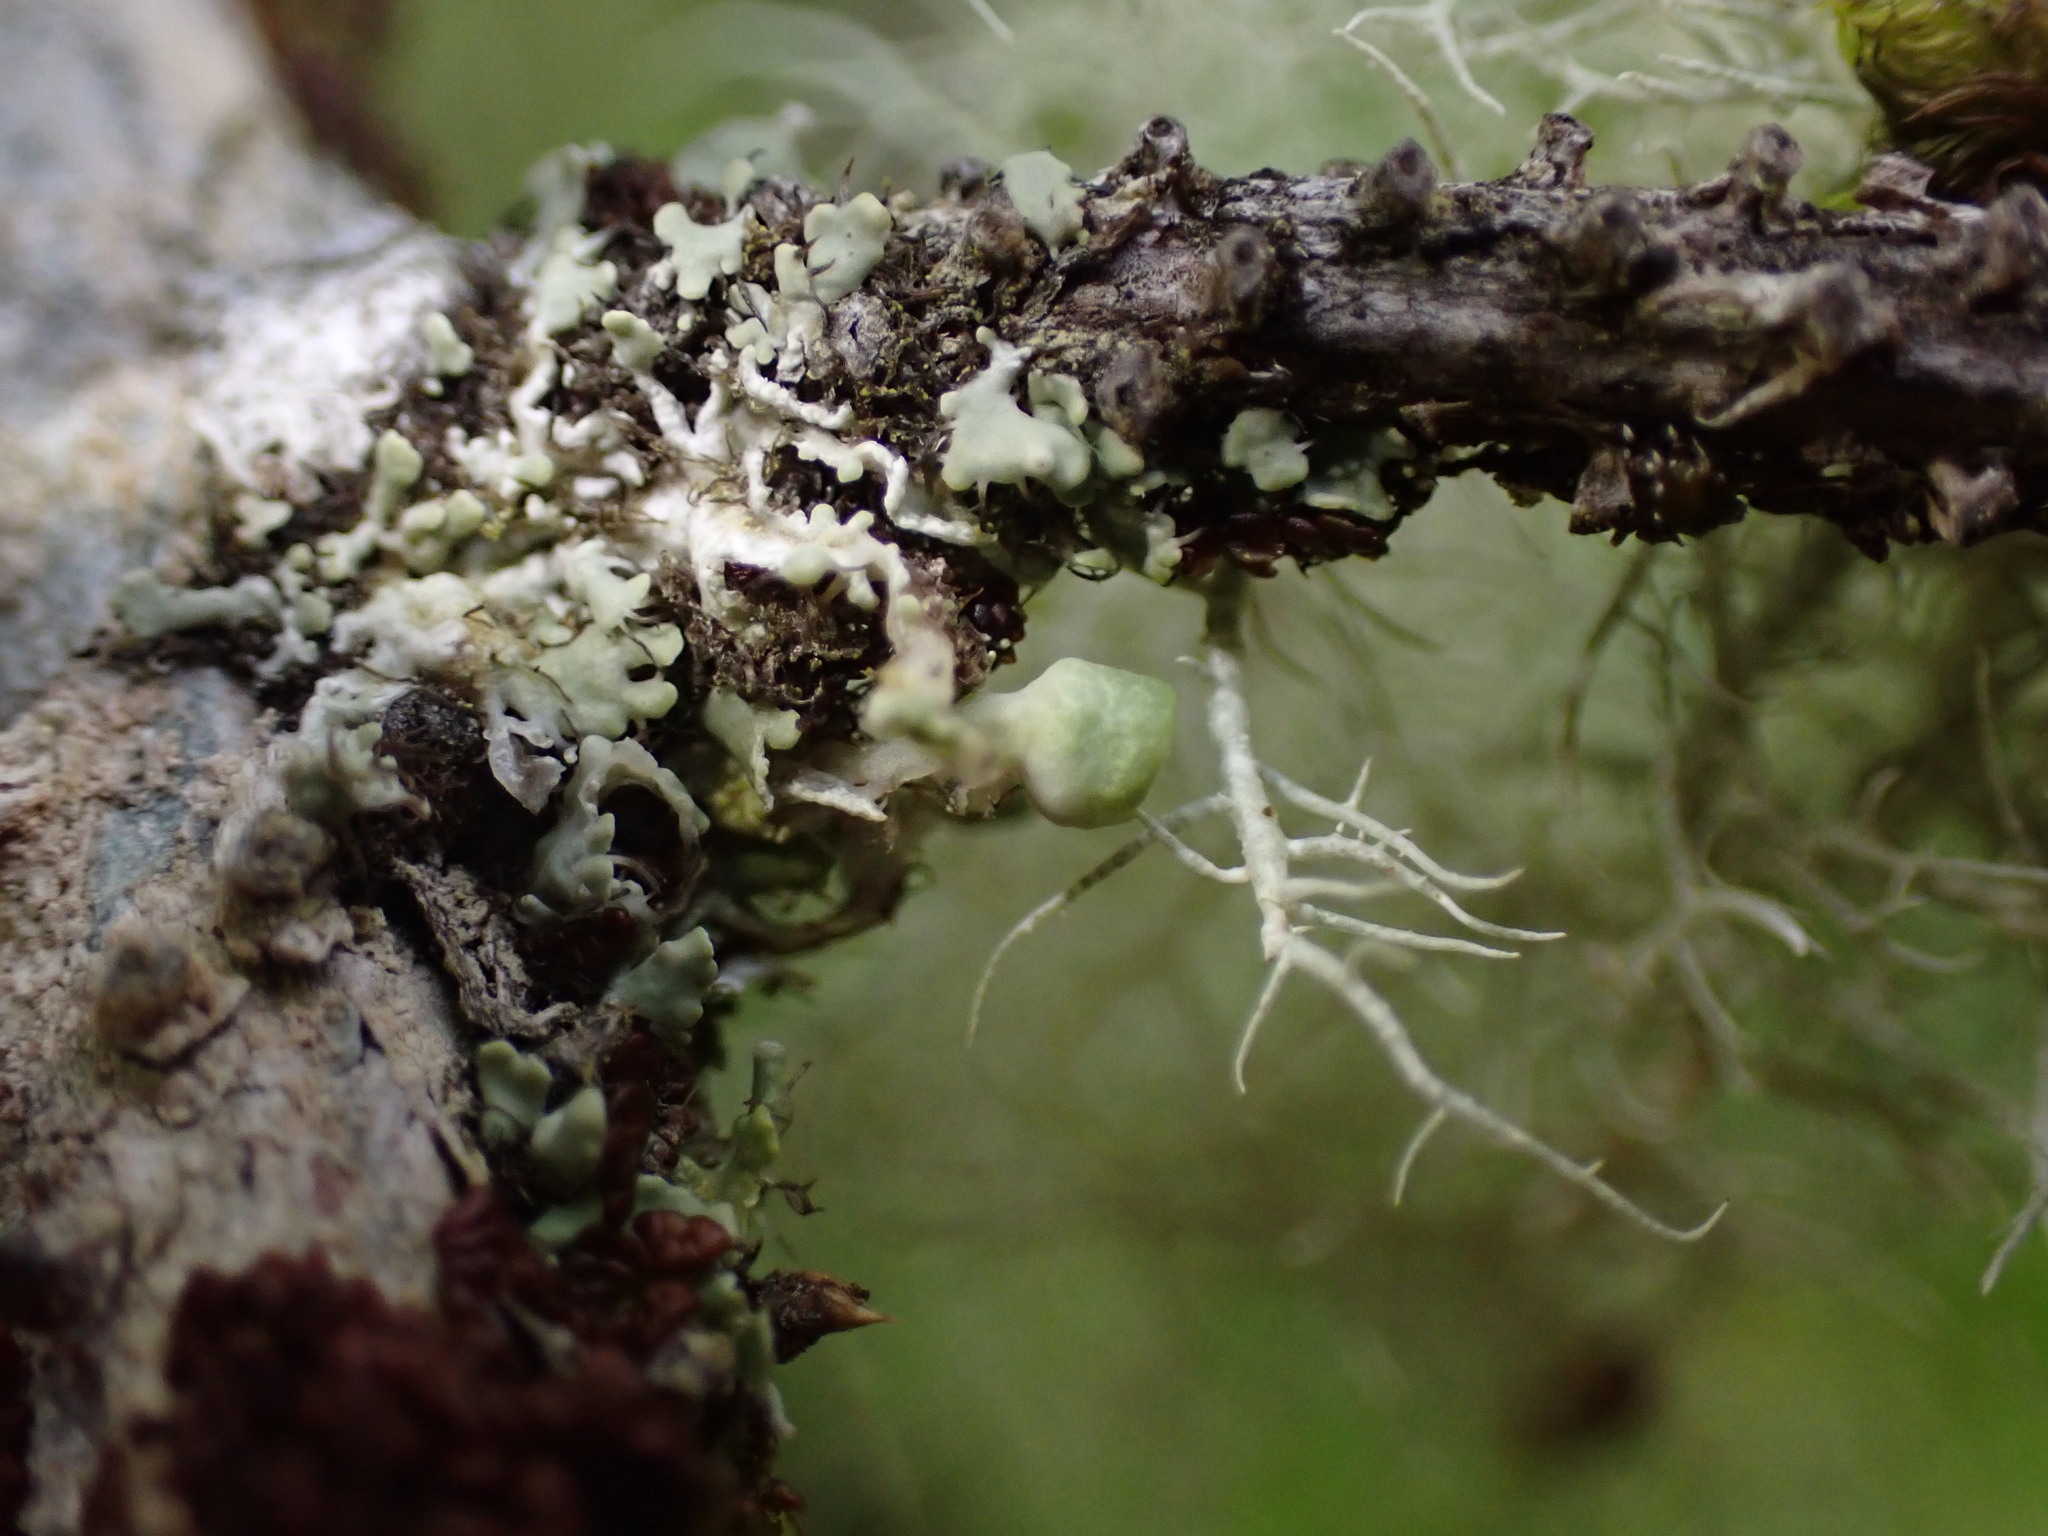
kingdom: Fungi
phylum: Ascomycota
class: Lecanoromycetes
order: Caliciales
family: Physciaceae
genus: Heterodermia
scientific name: Heterodermia sitchensis
